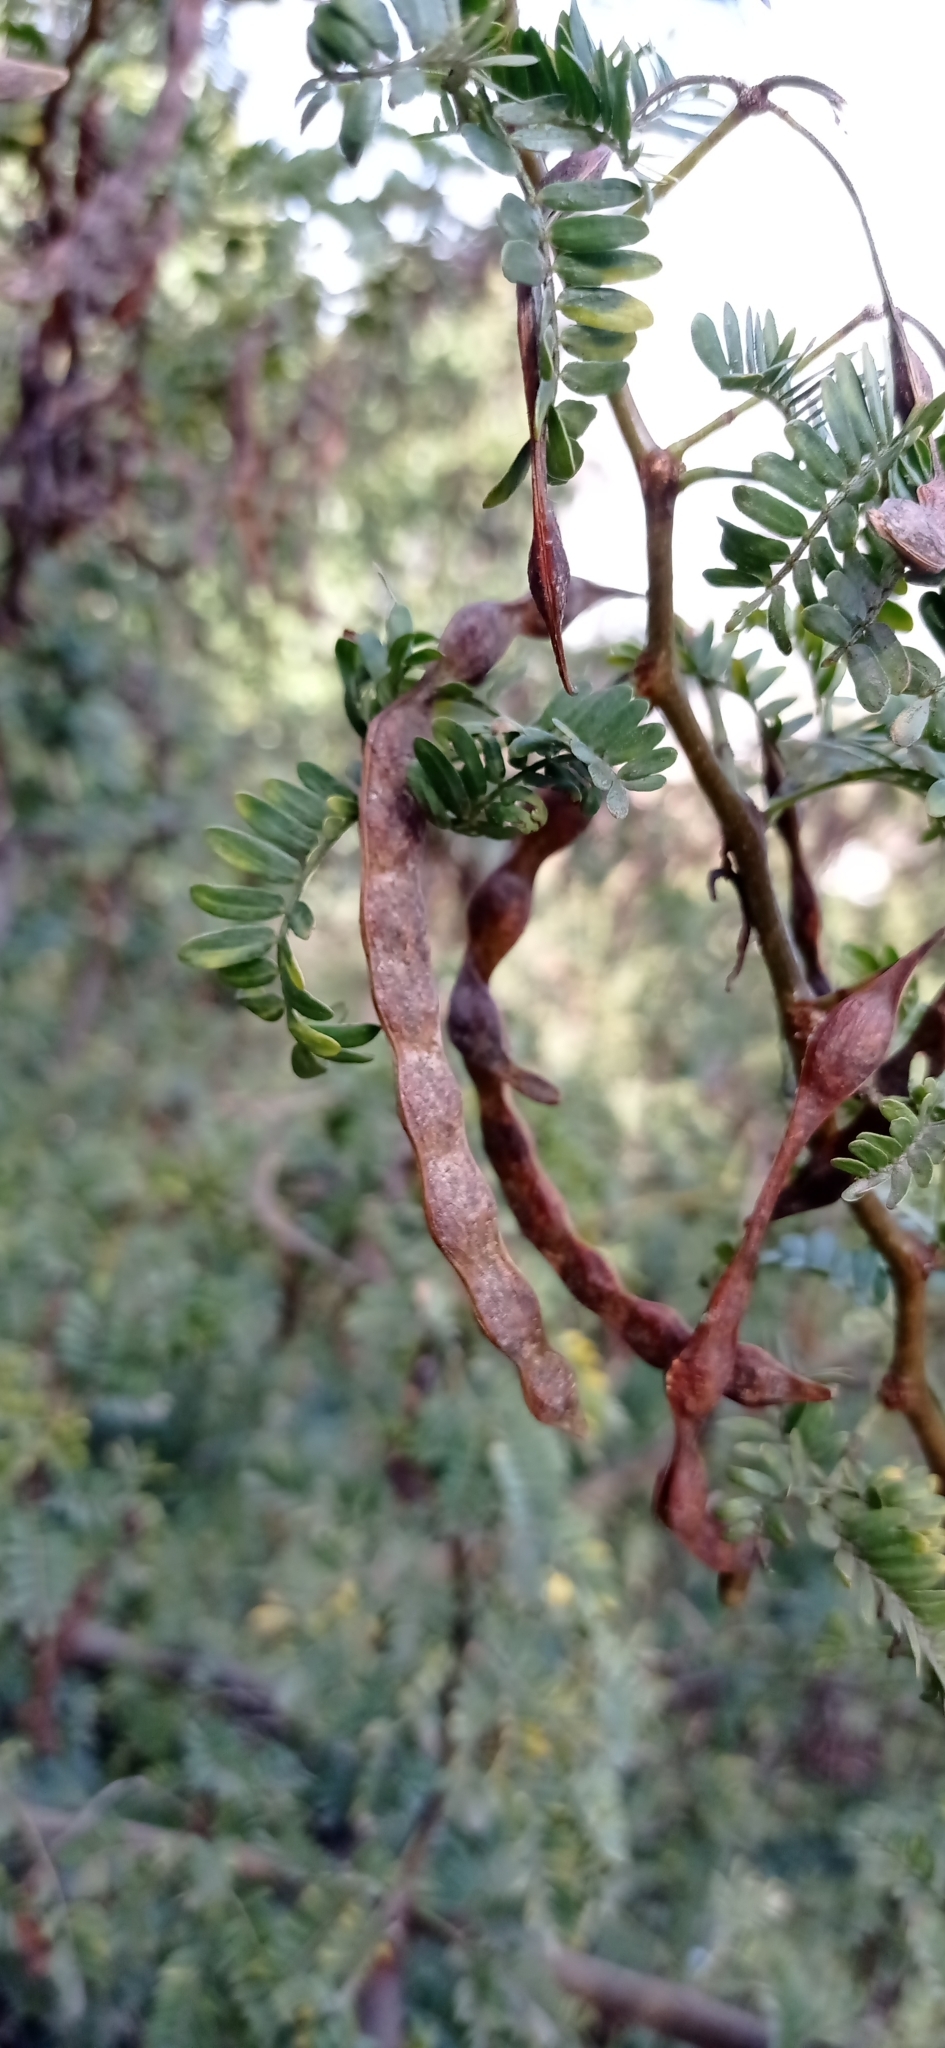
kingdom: Plantae
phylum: Tracheophyta
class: Magnoliopsida
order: Fabales
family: Fabaceae
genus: Vachellia
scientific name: Vachellia karroo
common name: Sweet thorn
